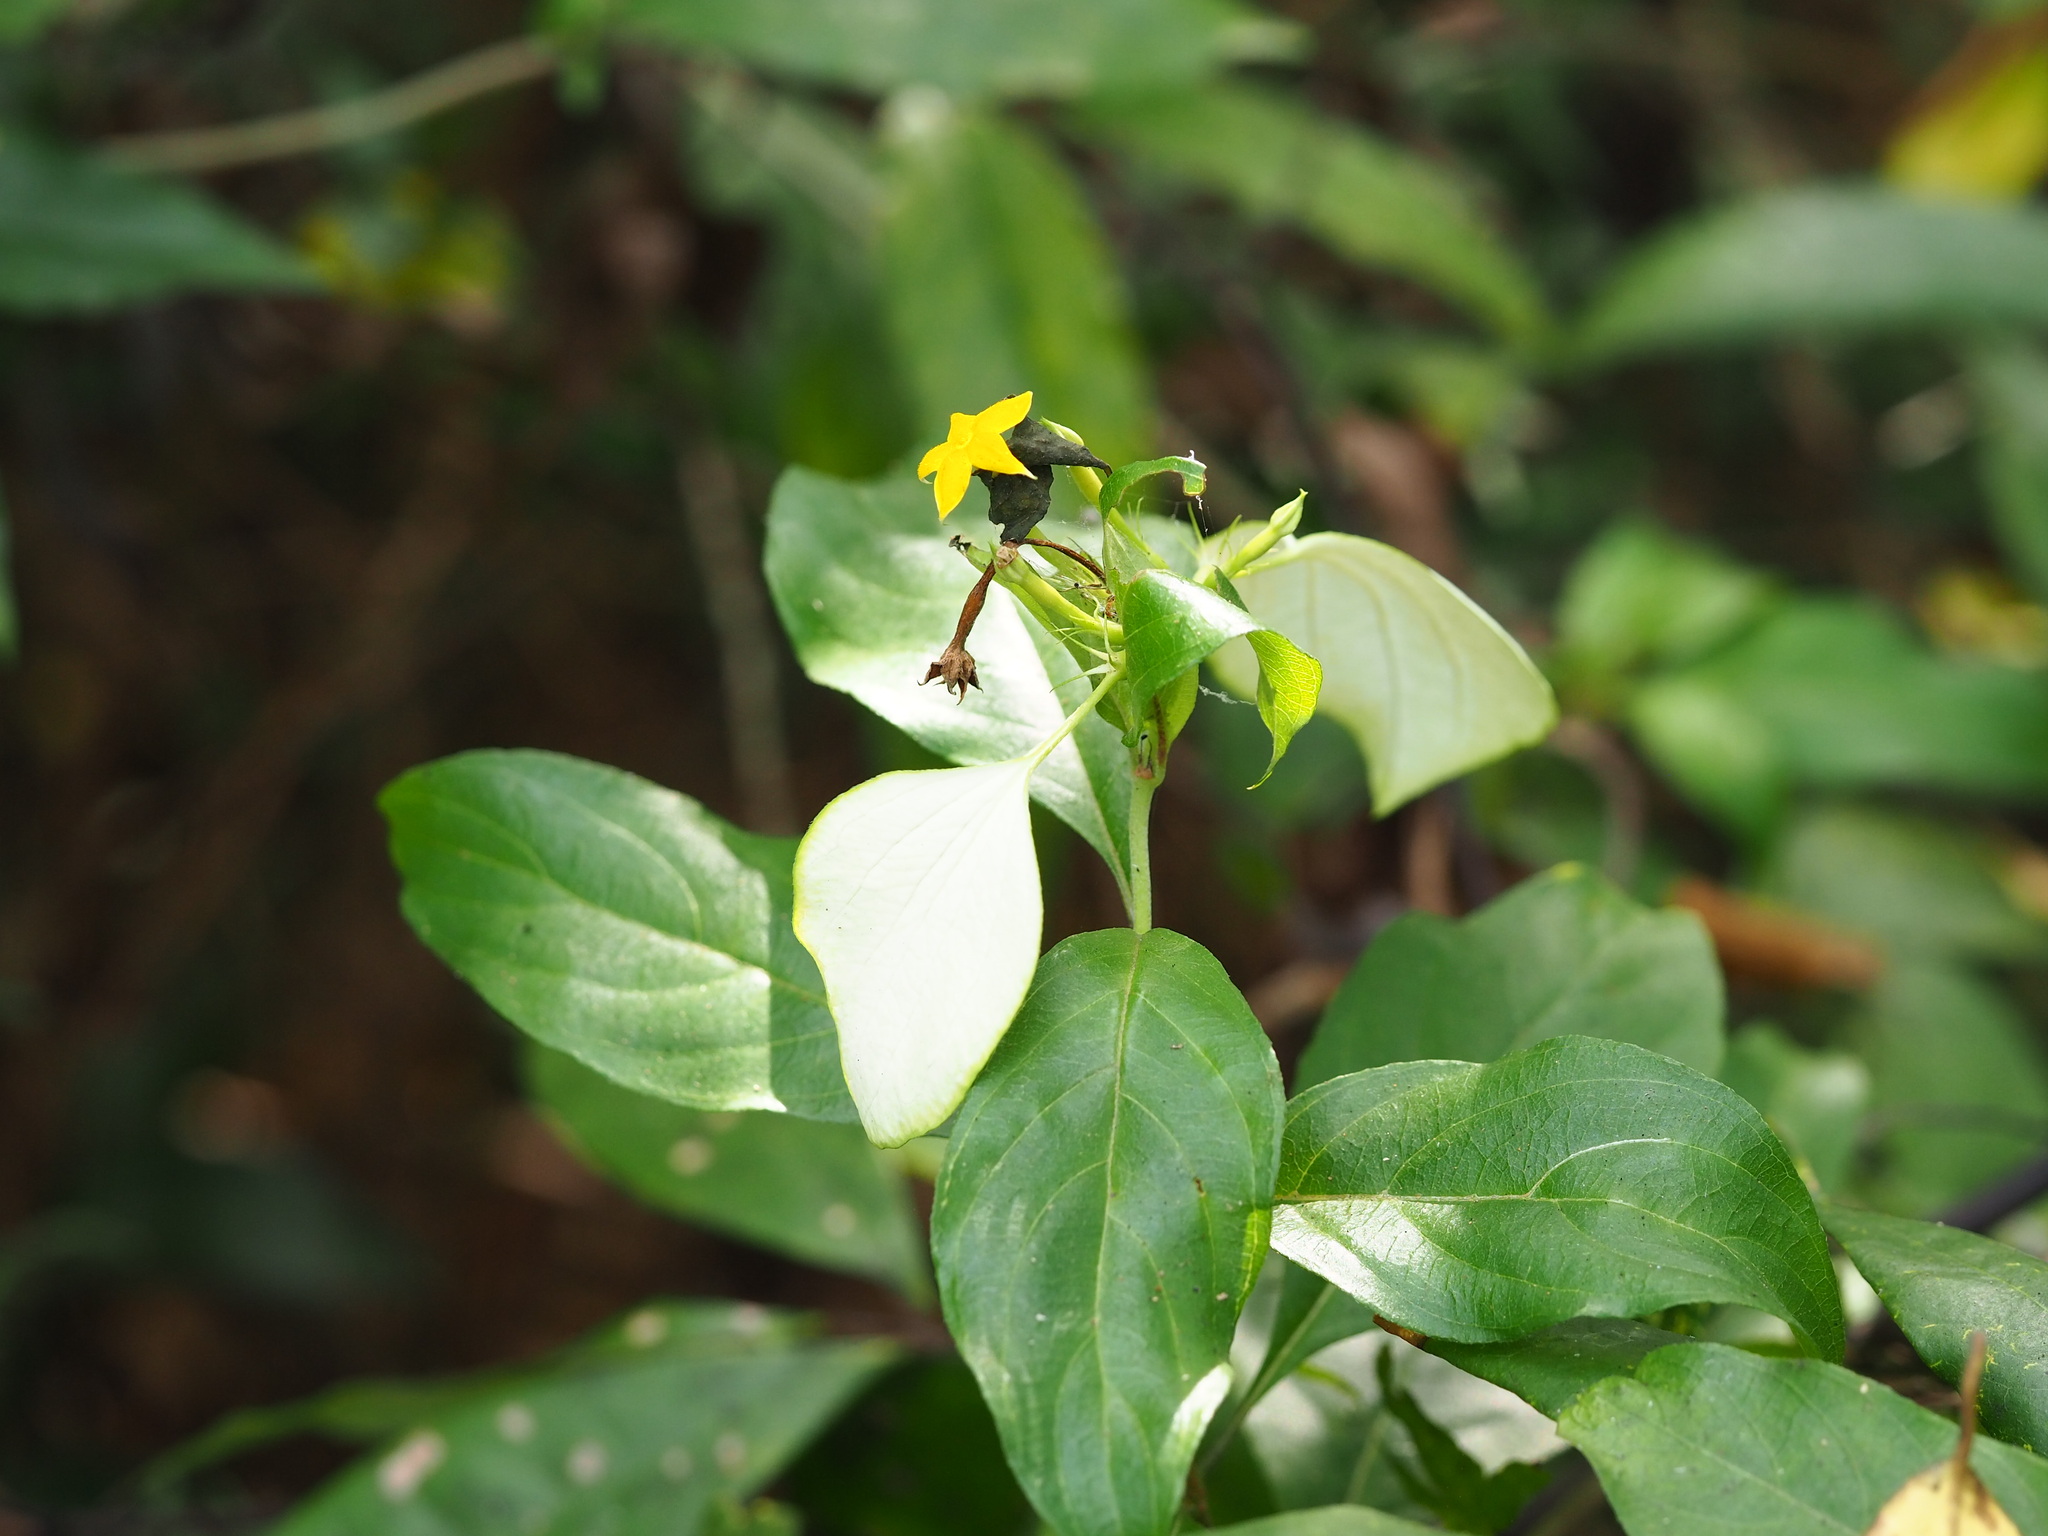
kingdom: Plantae
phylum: Tracheophyta
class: Magnoliopsida
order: Gentianales
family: Rubiaceae
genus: Mussaenda
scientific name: Mussaenda formosana
